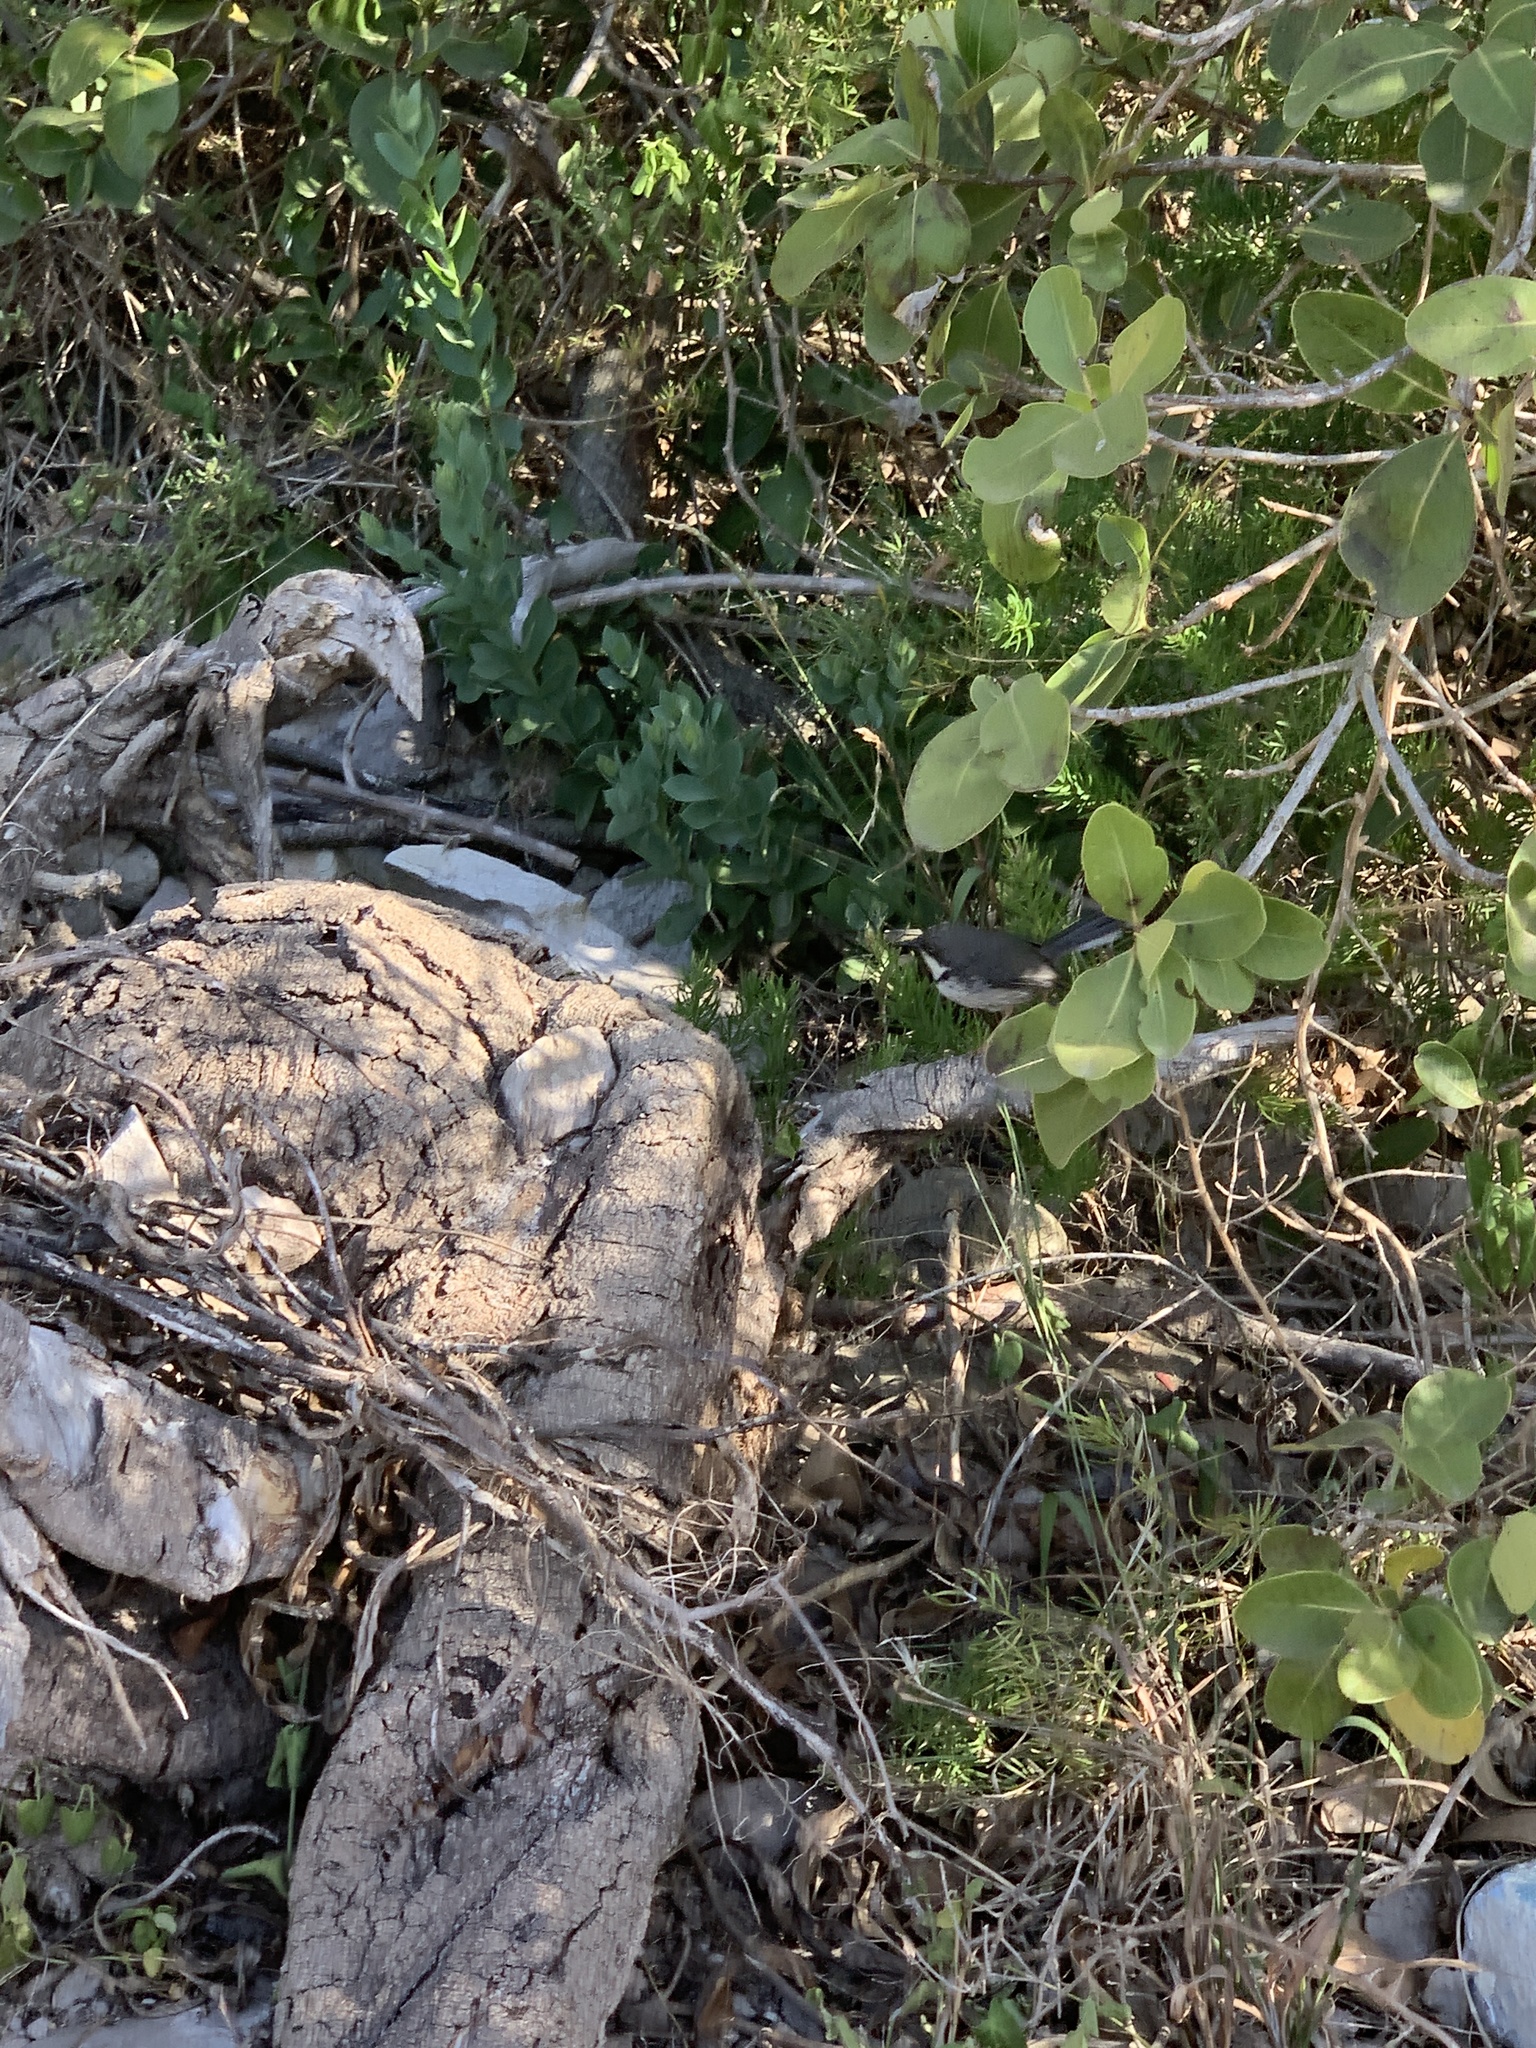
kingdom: Animalia
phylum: Chordata
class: Aves
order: Passeriformes
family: Cisticolidae
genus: Apalis
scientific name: Apalis thoracica
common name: Bar-throated apalis
